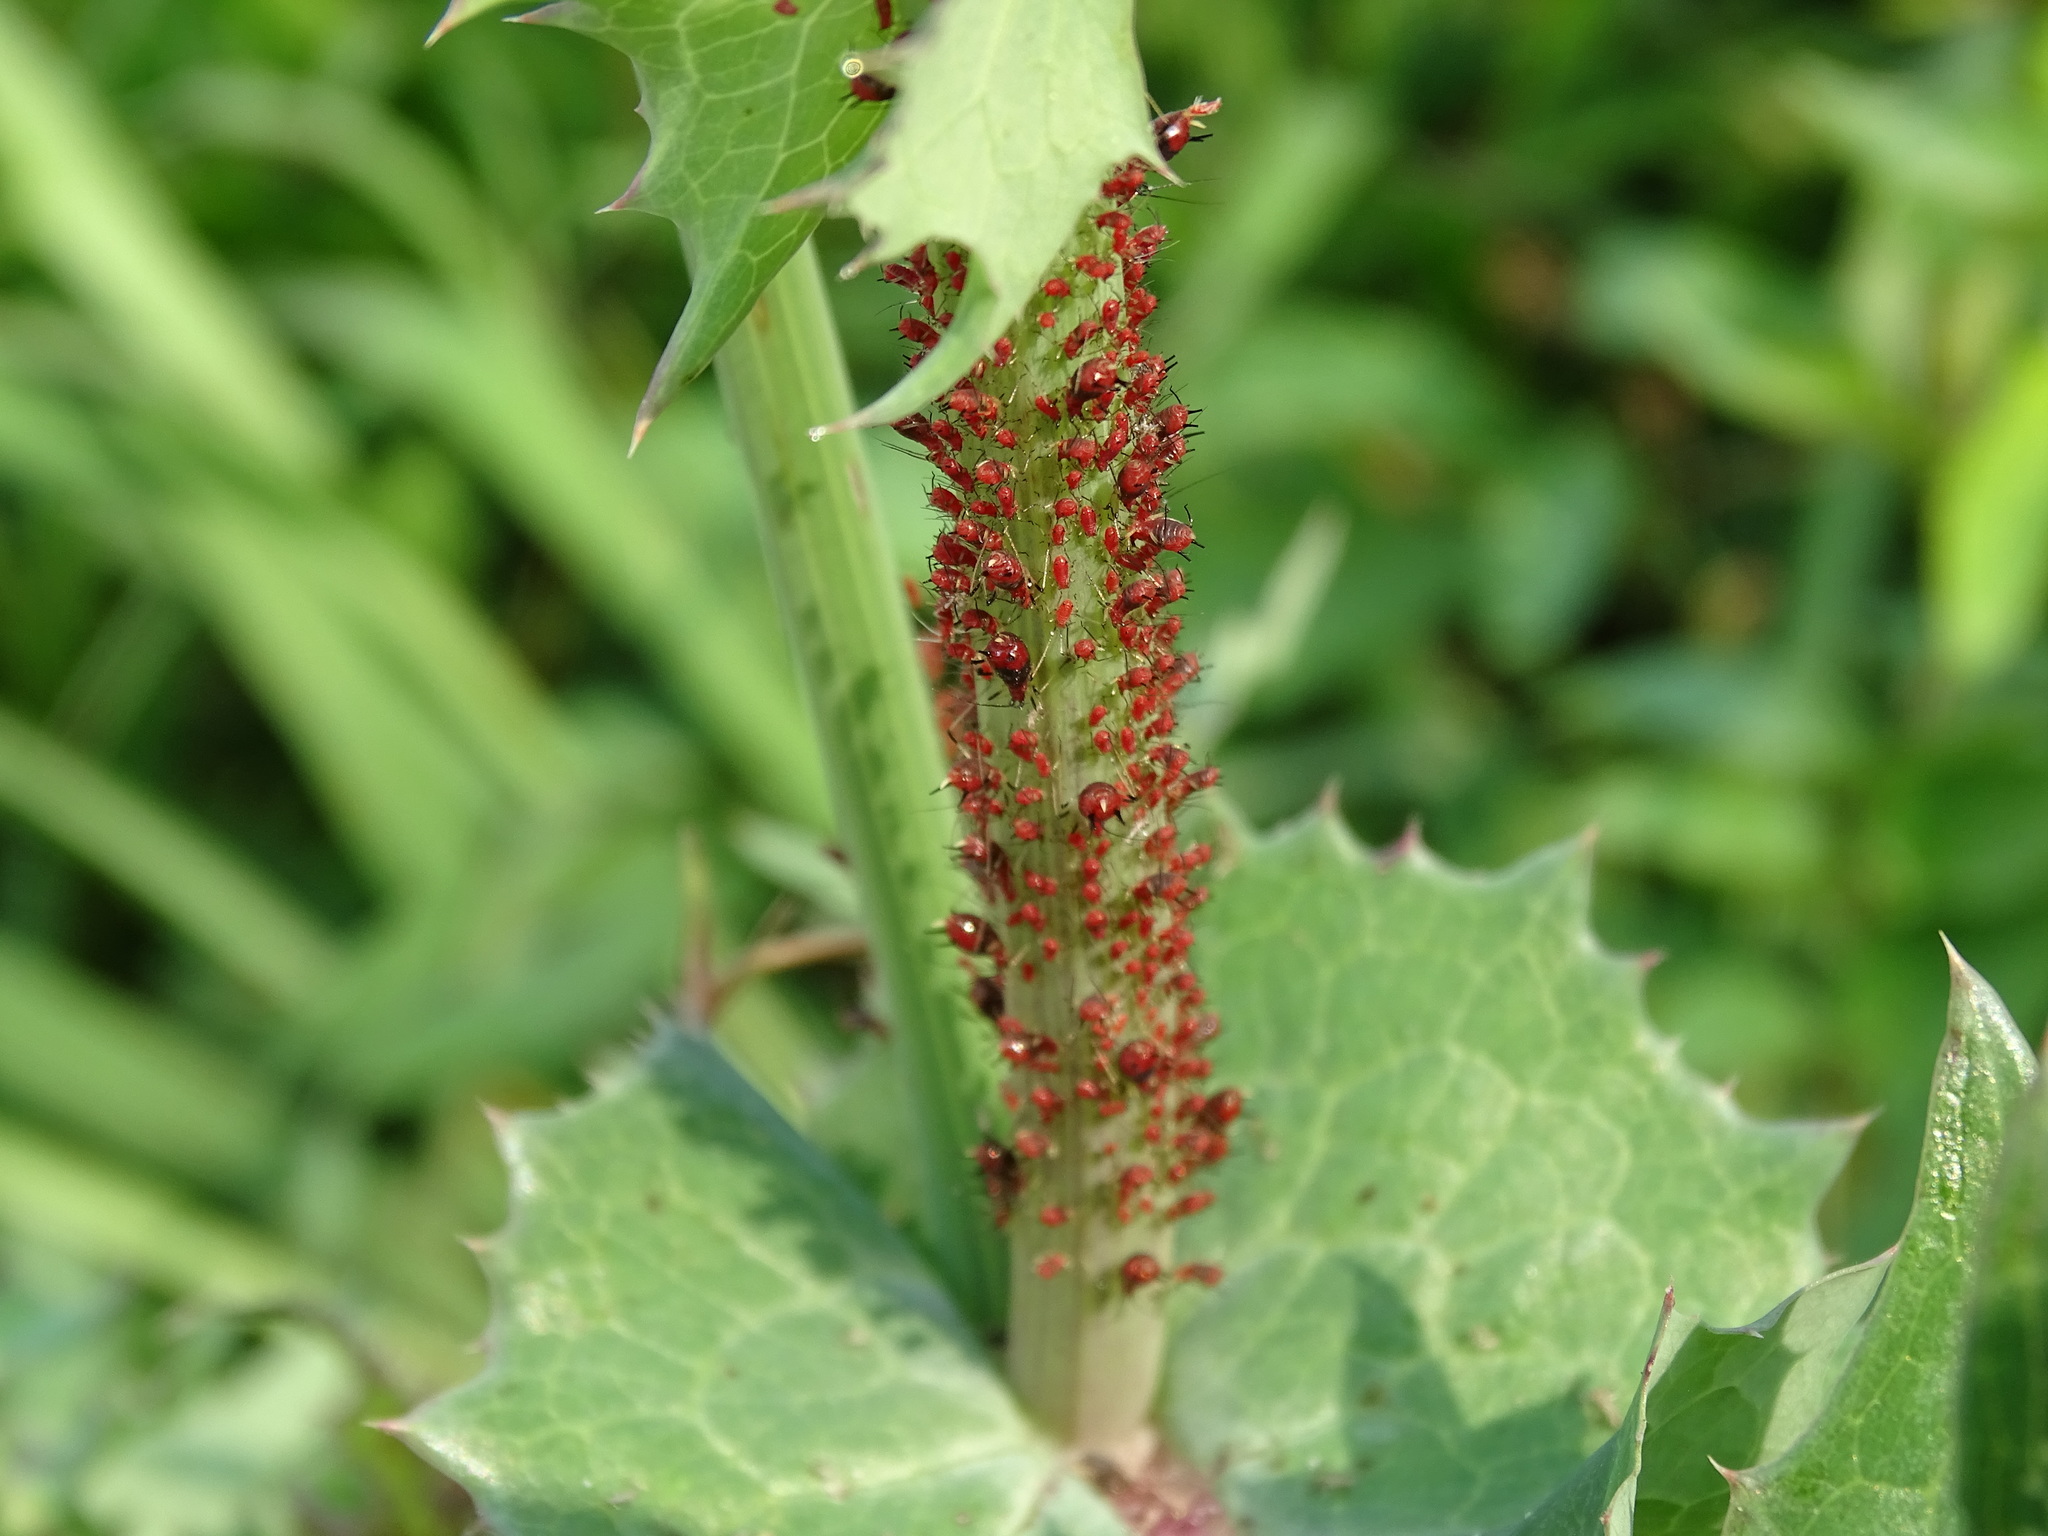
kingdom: Animalia
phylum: Arthropoda
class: Insecta
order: Hemiptera
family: Aphididae
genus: Uroleucon
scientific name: Uroleucon formosanum
